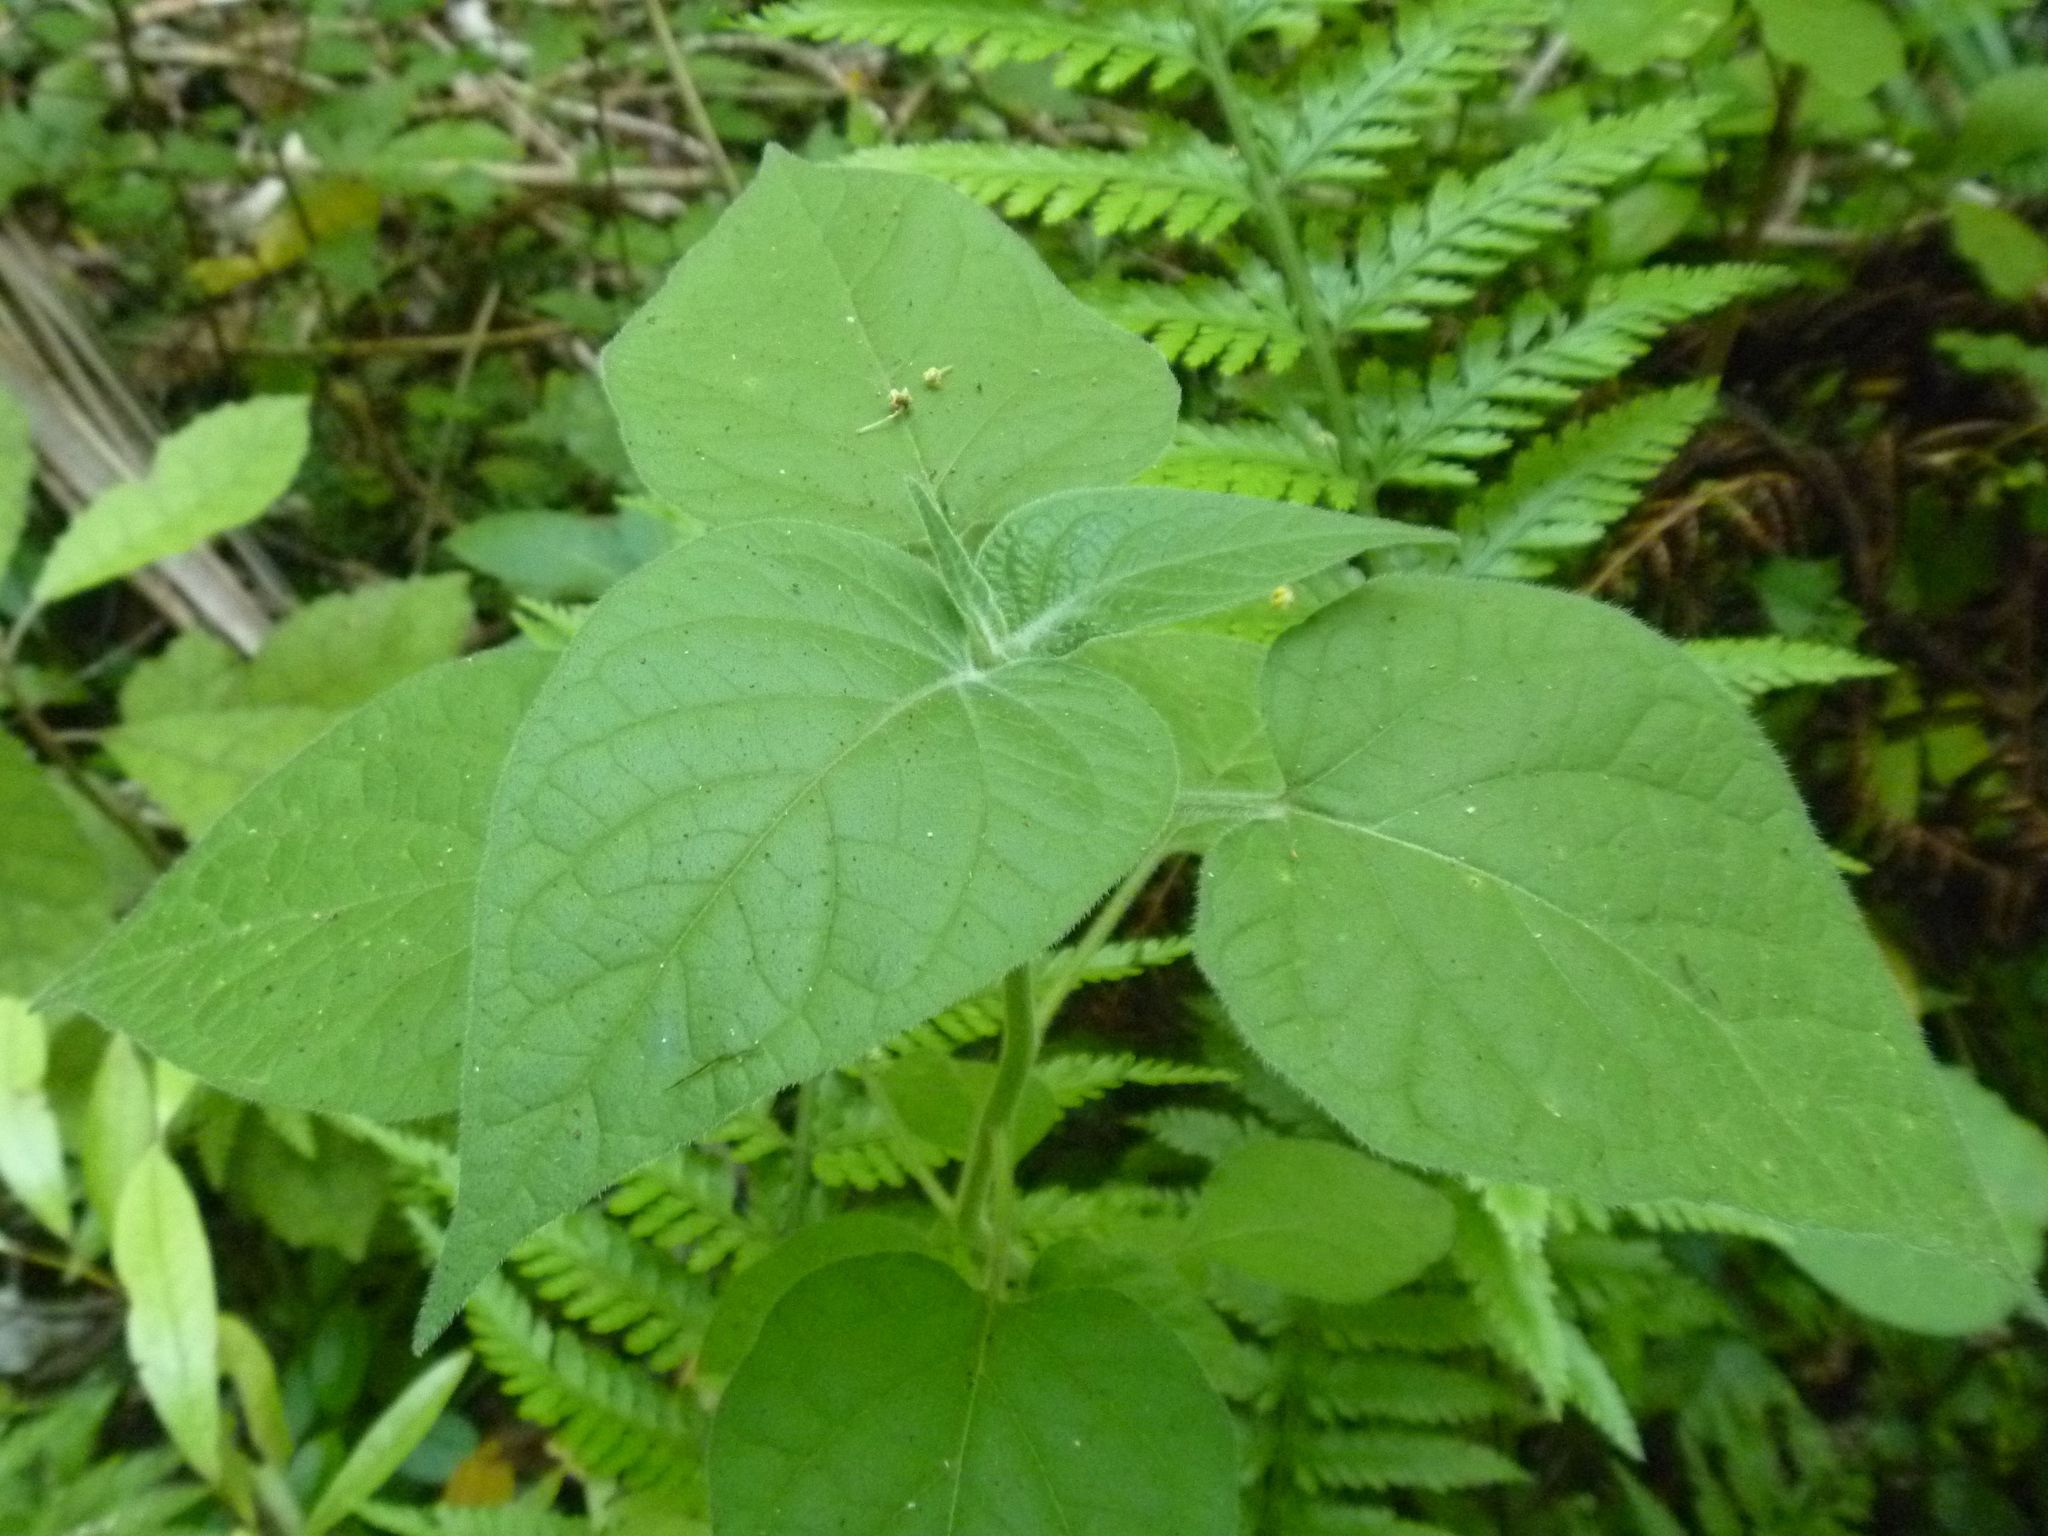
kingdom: Plantae
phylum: Tracheophyta
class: Magnoliopsida
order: Solanales
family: Solanaceae
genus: Physalis
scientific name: Physalis peruviana
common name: Cape-gooseberry
